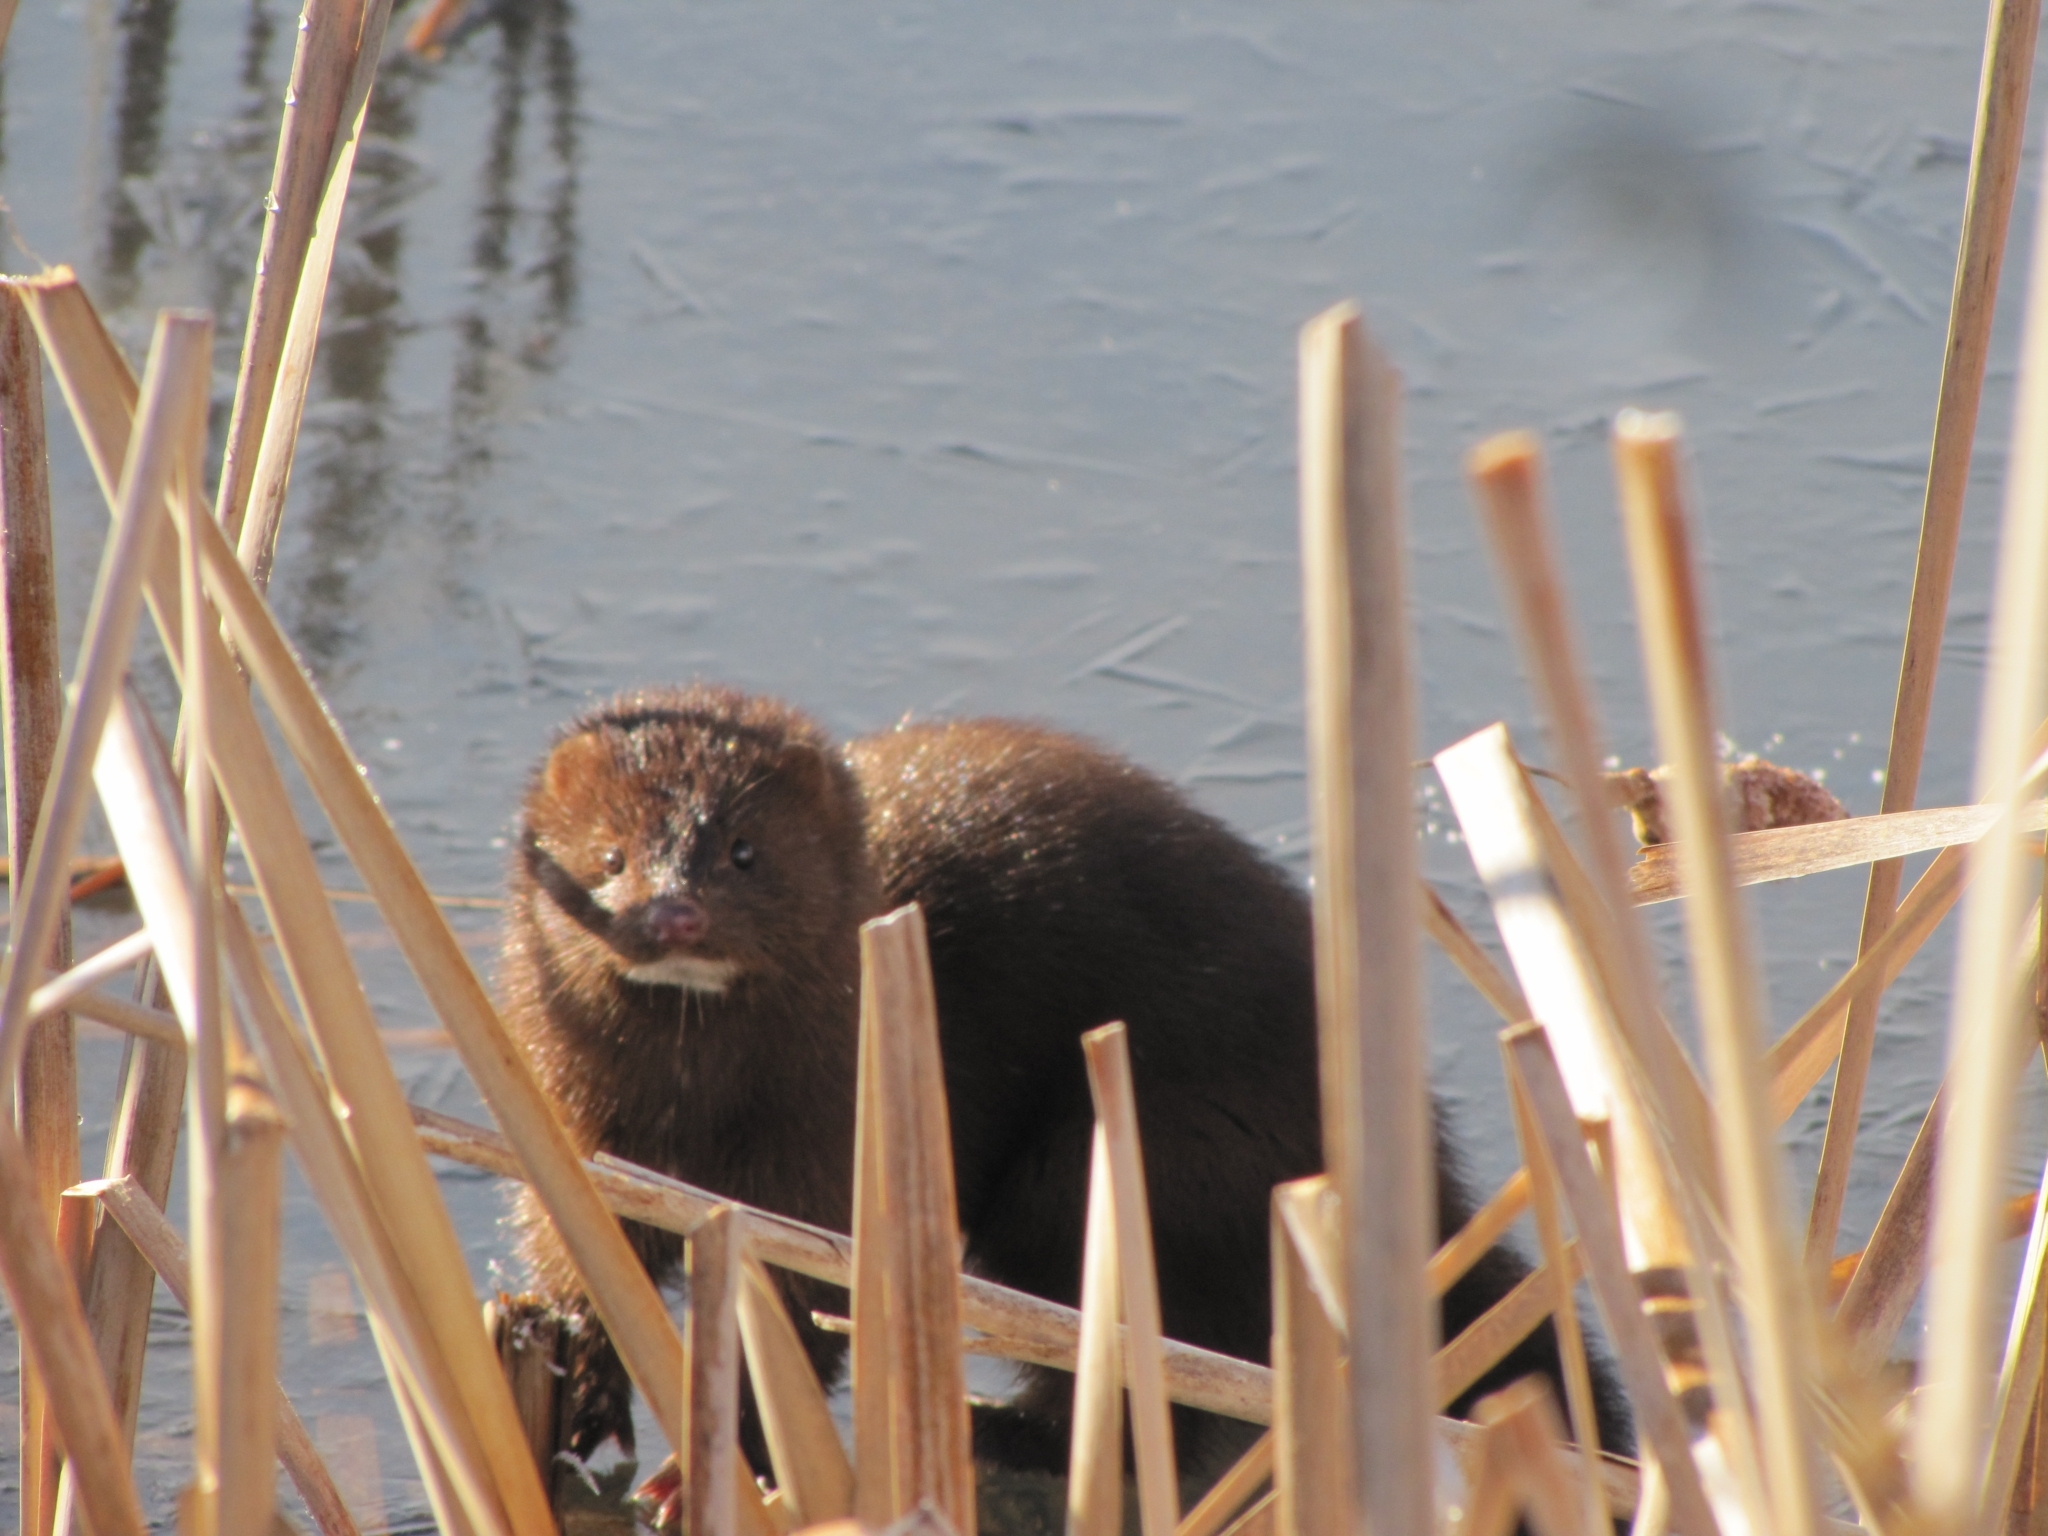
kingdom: Animalia
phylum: Chordata
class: Mammalia
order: Carnivora
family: Mustelidae
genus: Mustela
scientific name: Mustela
